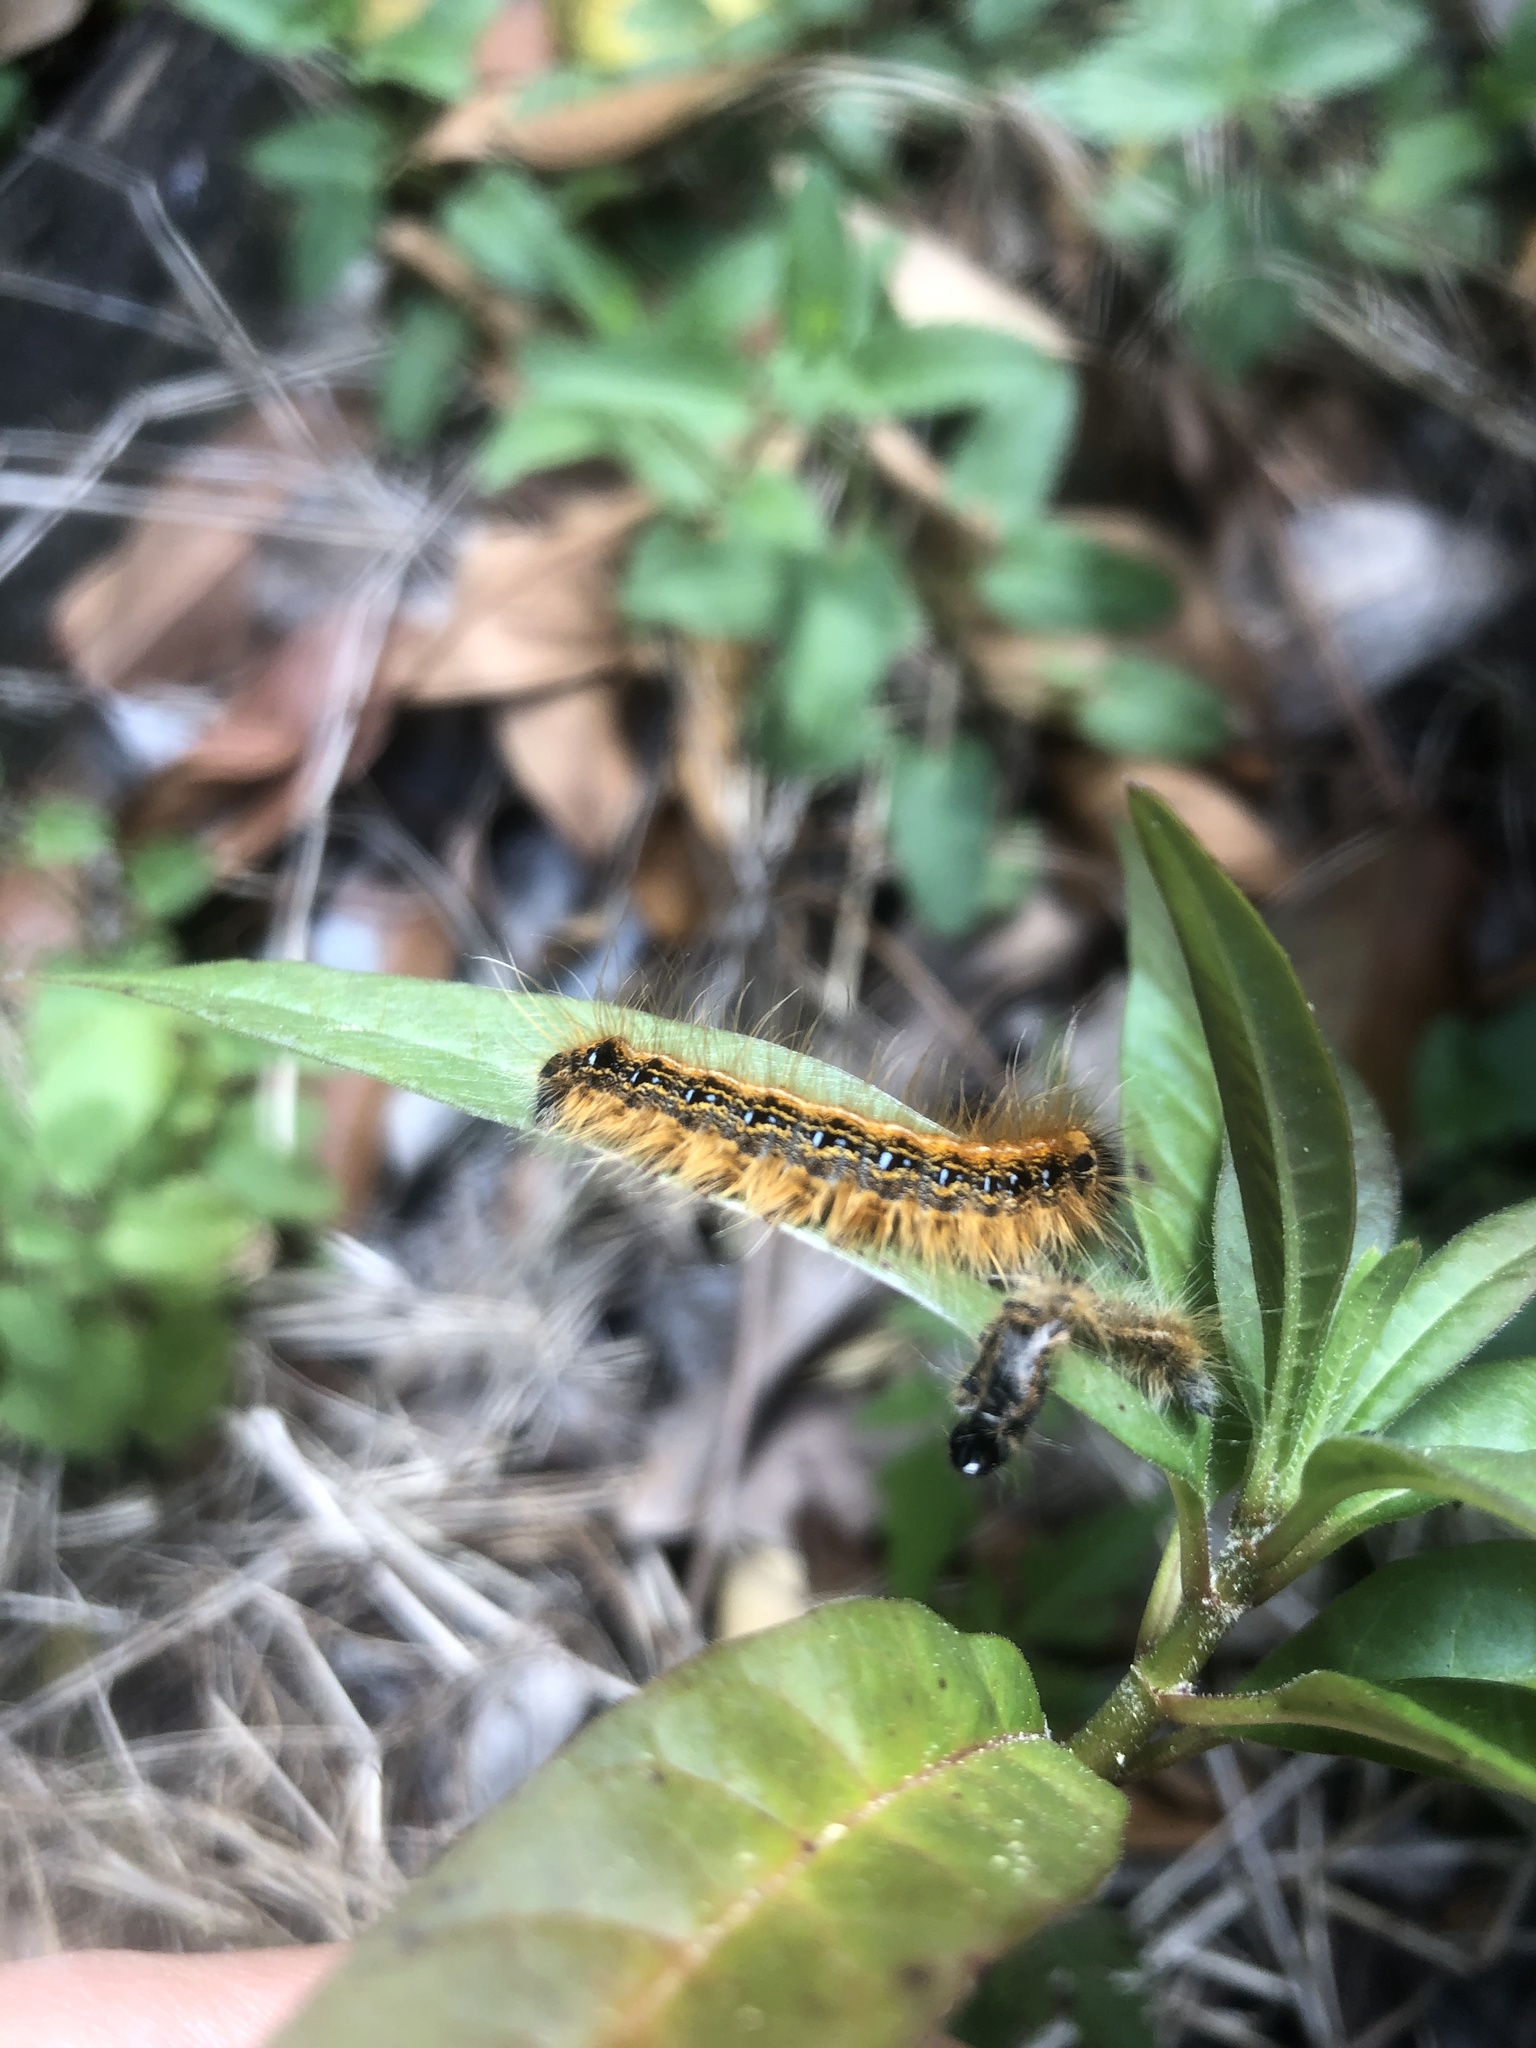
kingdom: Animalia
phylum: Arthropoda
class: Insecta
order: Lepidoptera
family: Lasiocampidae
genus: Malacosoma
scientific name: Malacosoma americana
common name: Eastern tent caterpillar moth
